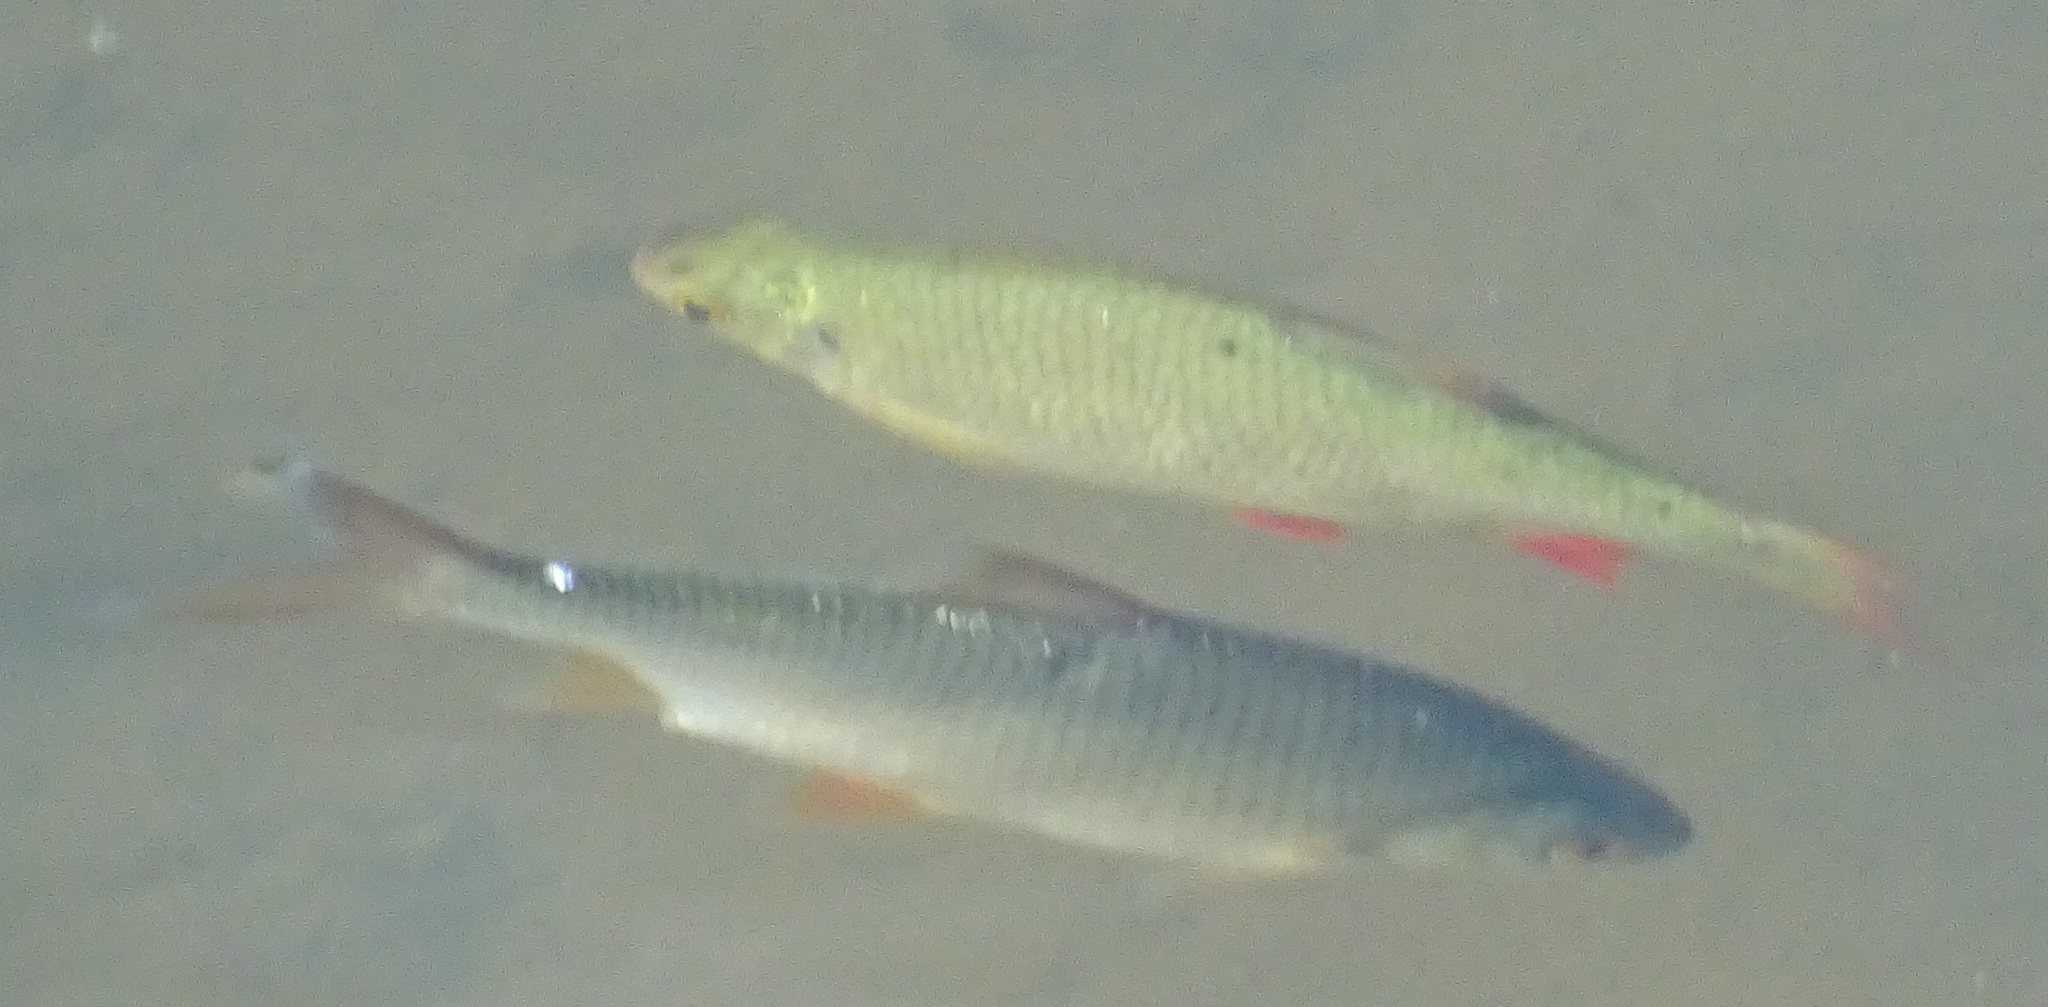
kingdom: Animalia
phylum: Chordata
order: Cypriniformes
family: Cyprinidae
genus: Scardinius
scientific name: Scardinius erythrophthalmus
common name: Rudd
